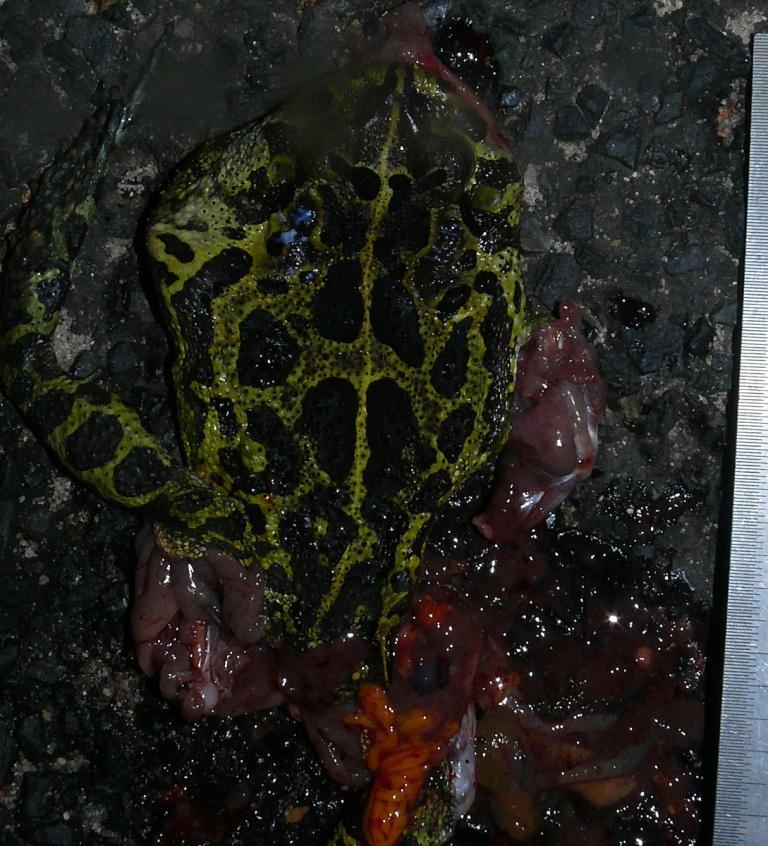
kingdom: Animalia
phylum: Chordata
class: Amphibia
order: Anura
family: Bufonidae
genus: Sclerophrys
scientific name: Sclerophrys pantherina
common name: Panther toad
